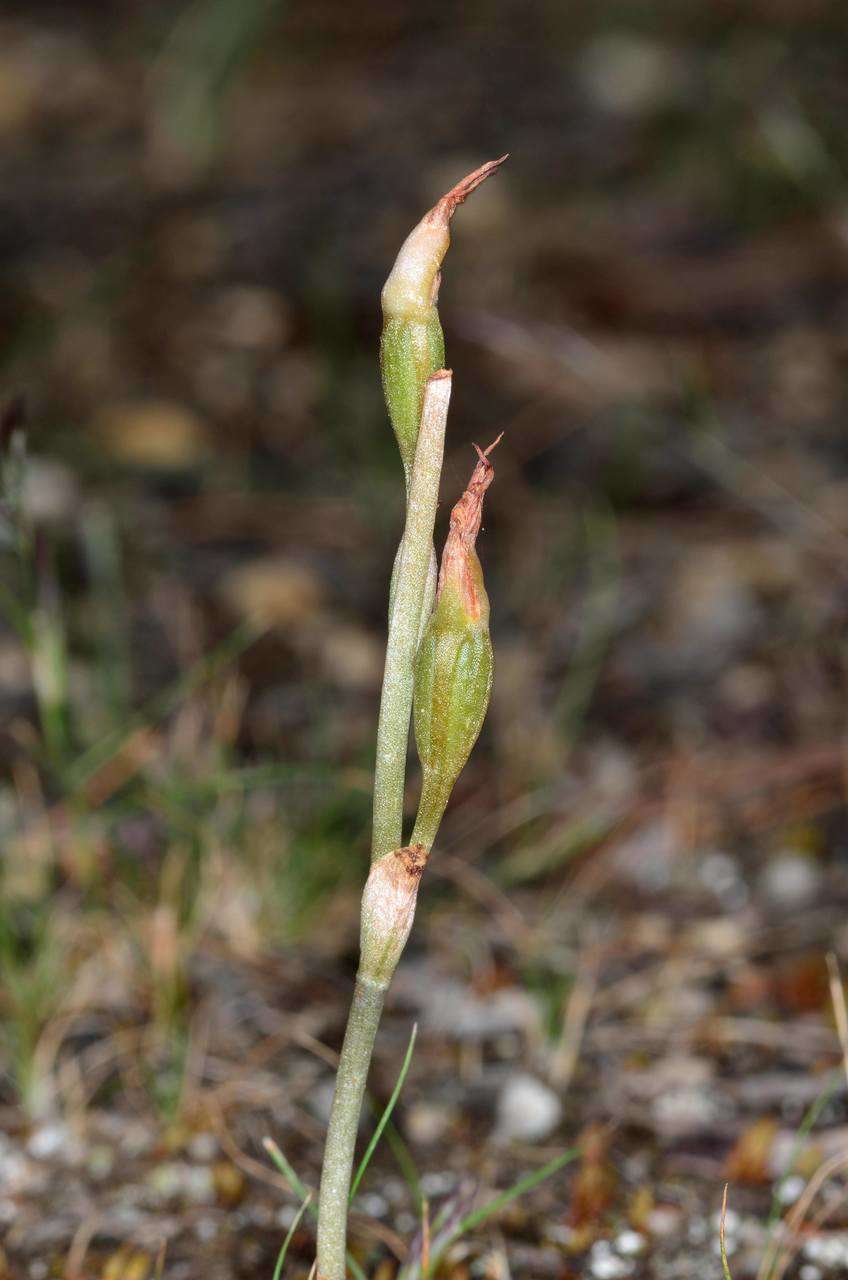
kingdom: Plantae
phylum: Tracheophyta
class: Liliopsida
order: Asparagales
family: Orchidaceae
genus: Pterostylis
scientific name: Pterostylis squamata
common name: Ruddy greenhood
